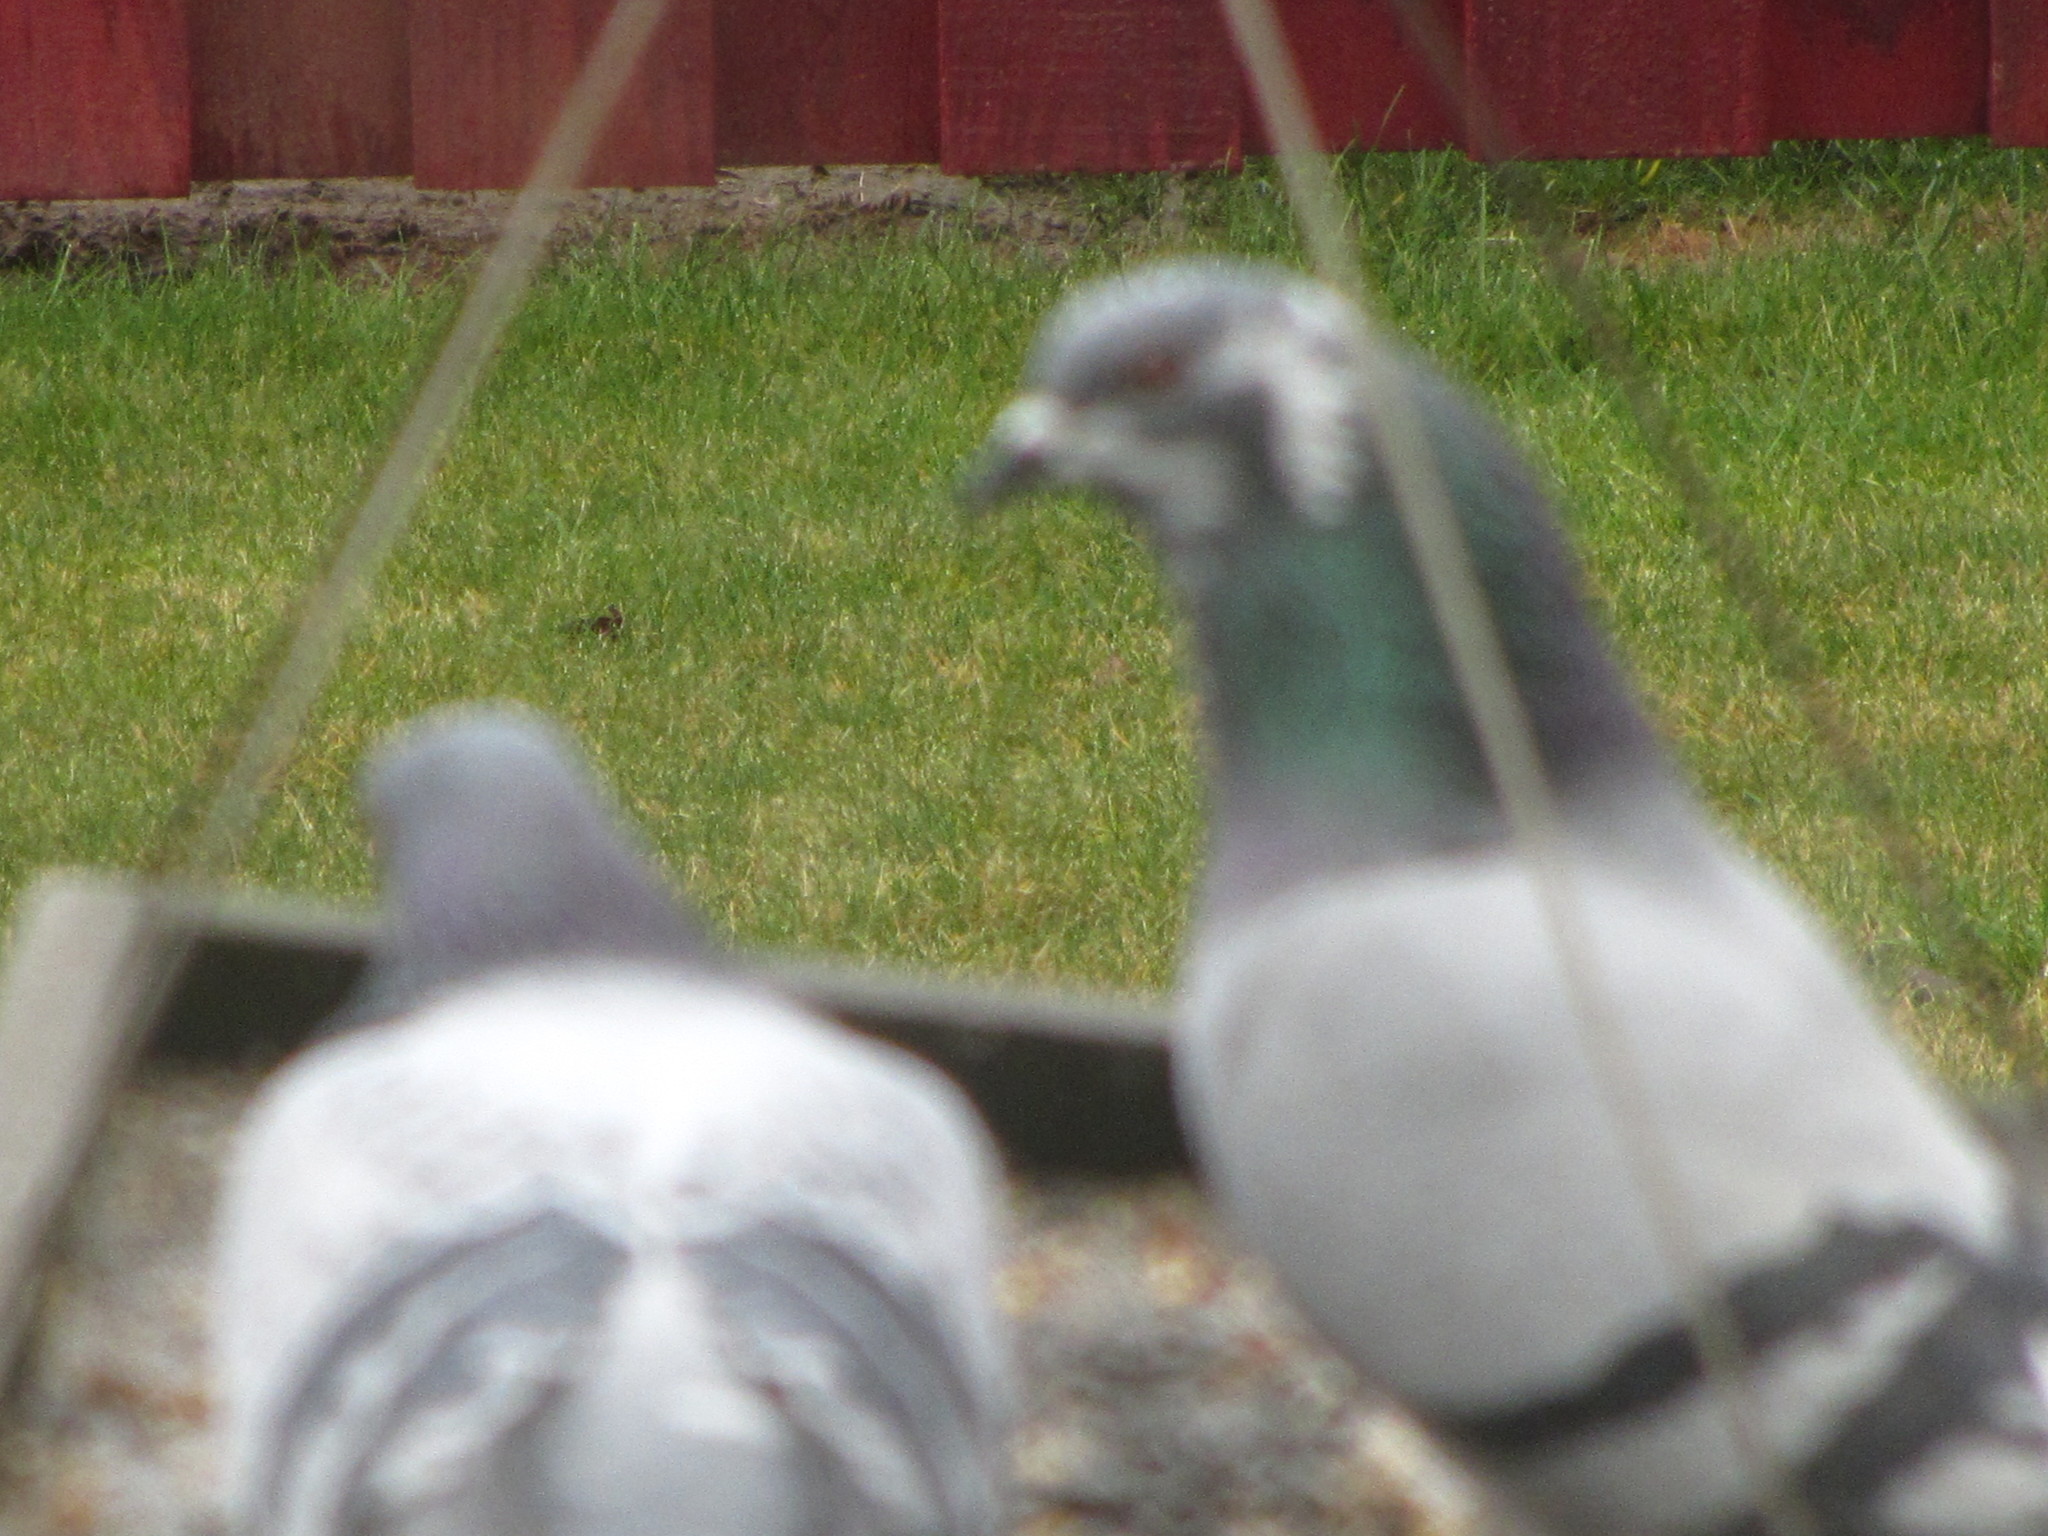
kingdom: Animalia
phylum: Chordata
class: Aves
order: Columbiformes
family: Columbidae
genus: Columba
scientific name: Columba livia
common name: Rock pigeon
